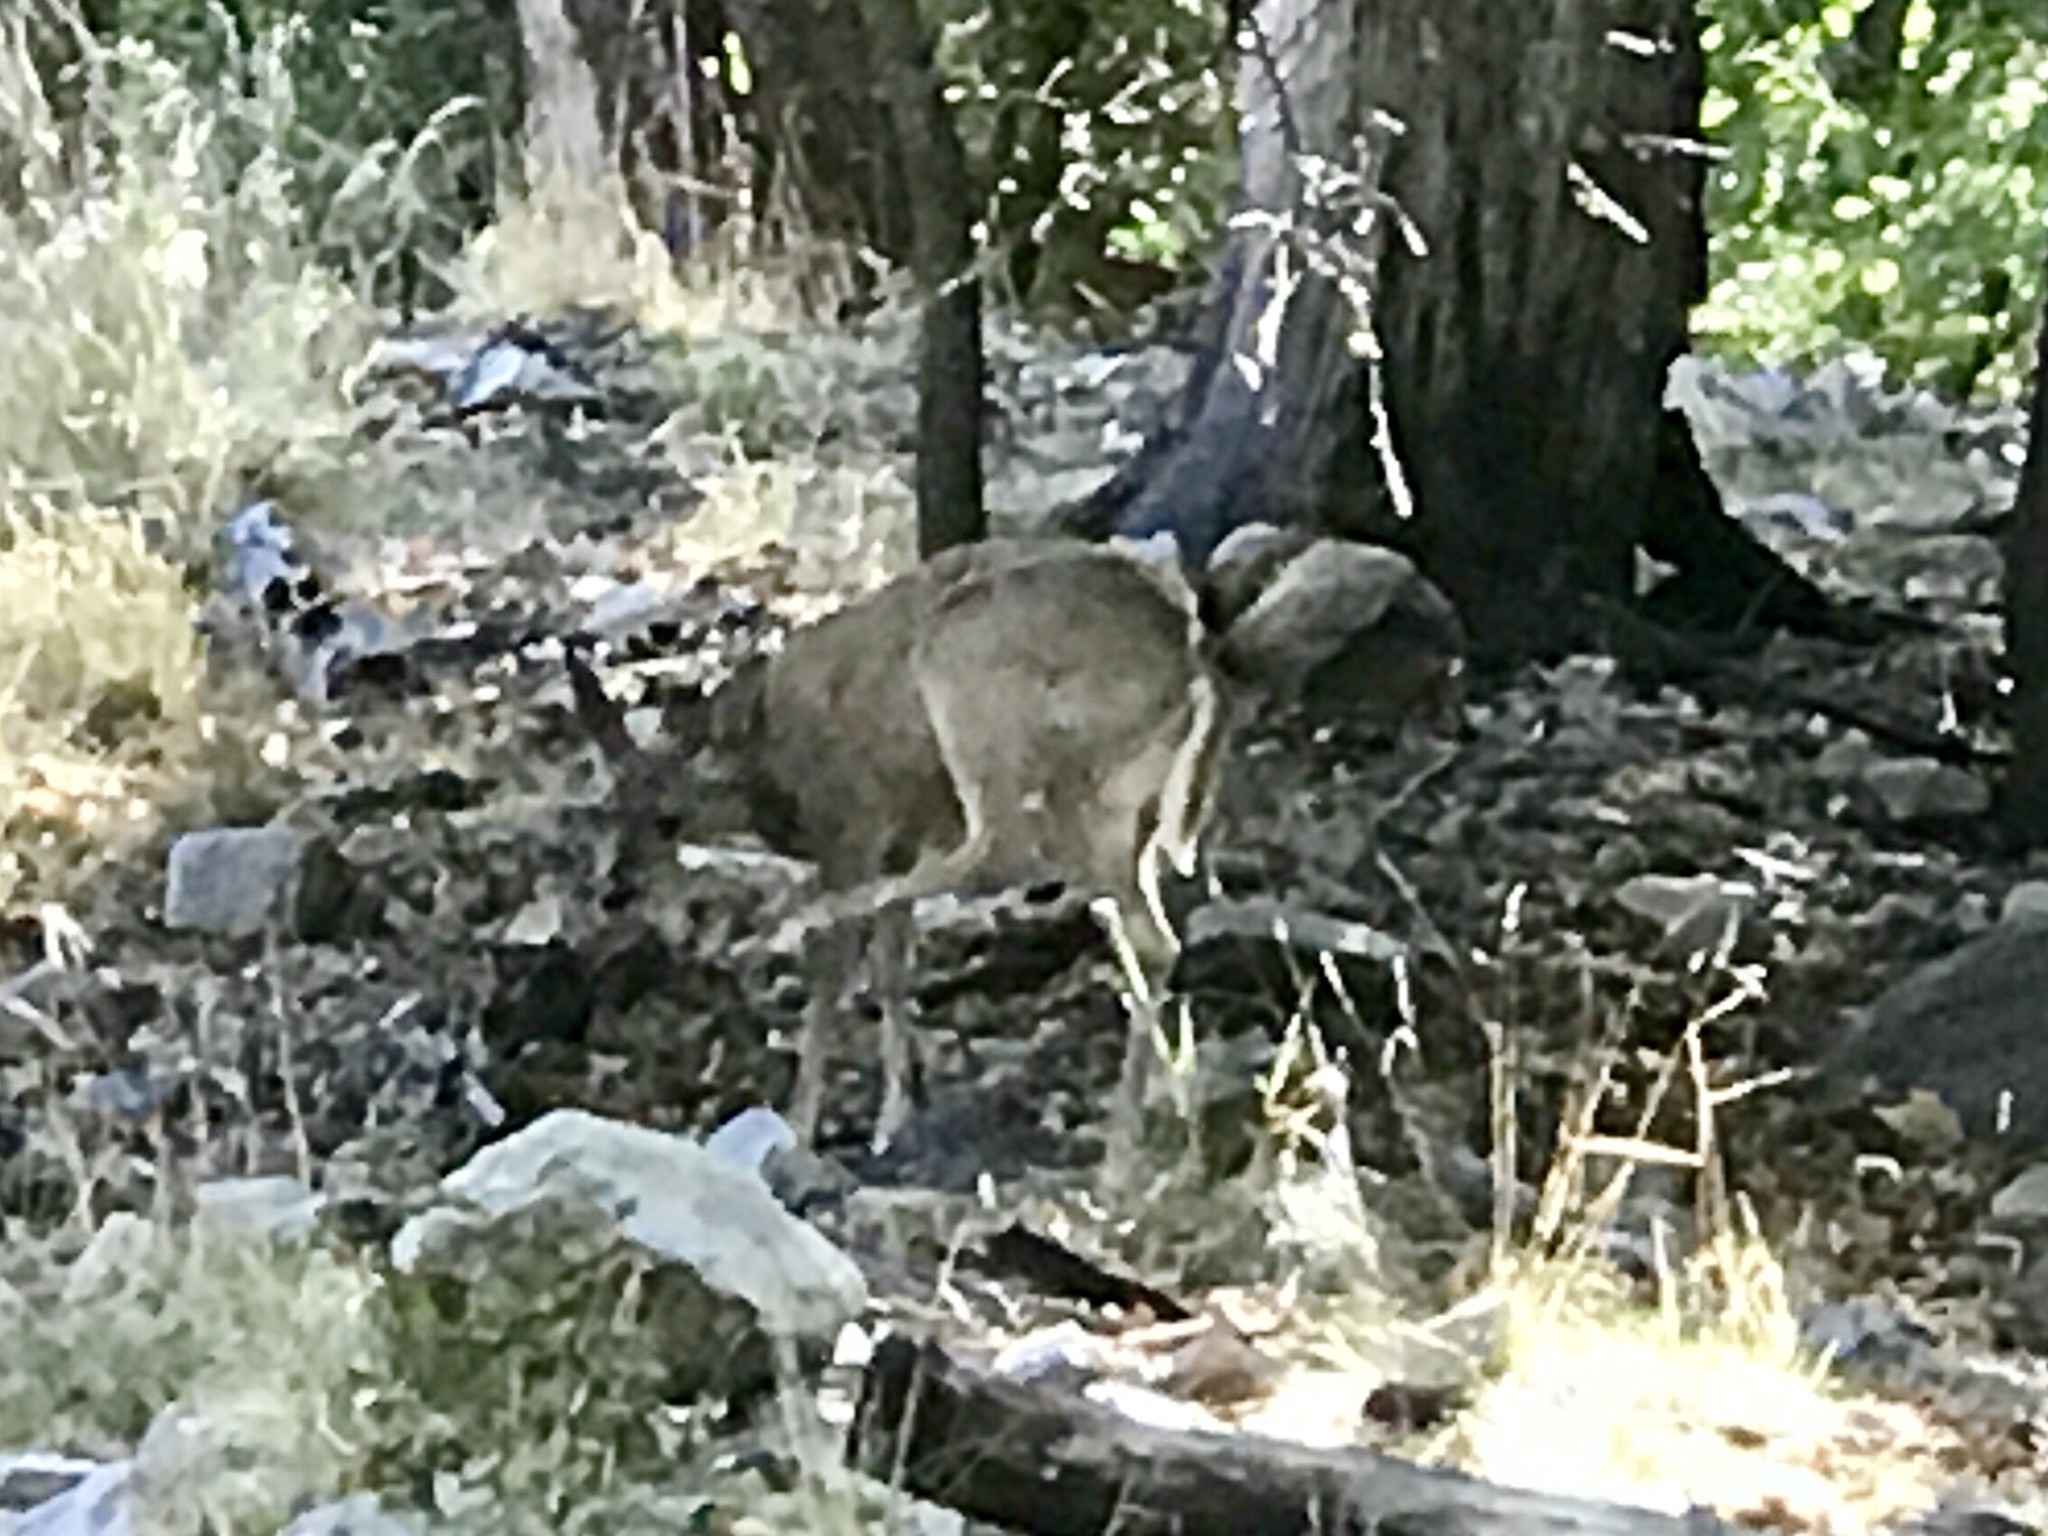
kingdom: Animalia
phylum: Chordata
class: Mammalia
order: Artiodactyla
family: Cervidae
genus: Odocoileus
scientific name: Odocoileus virginianus
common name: White-tailed deer
